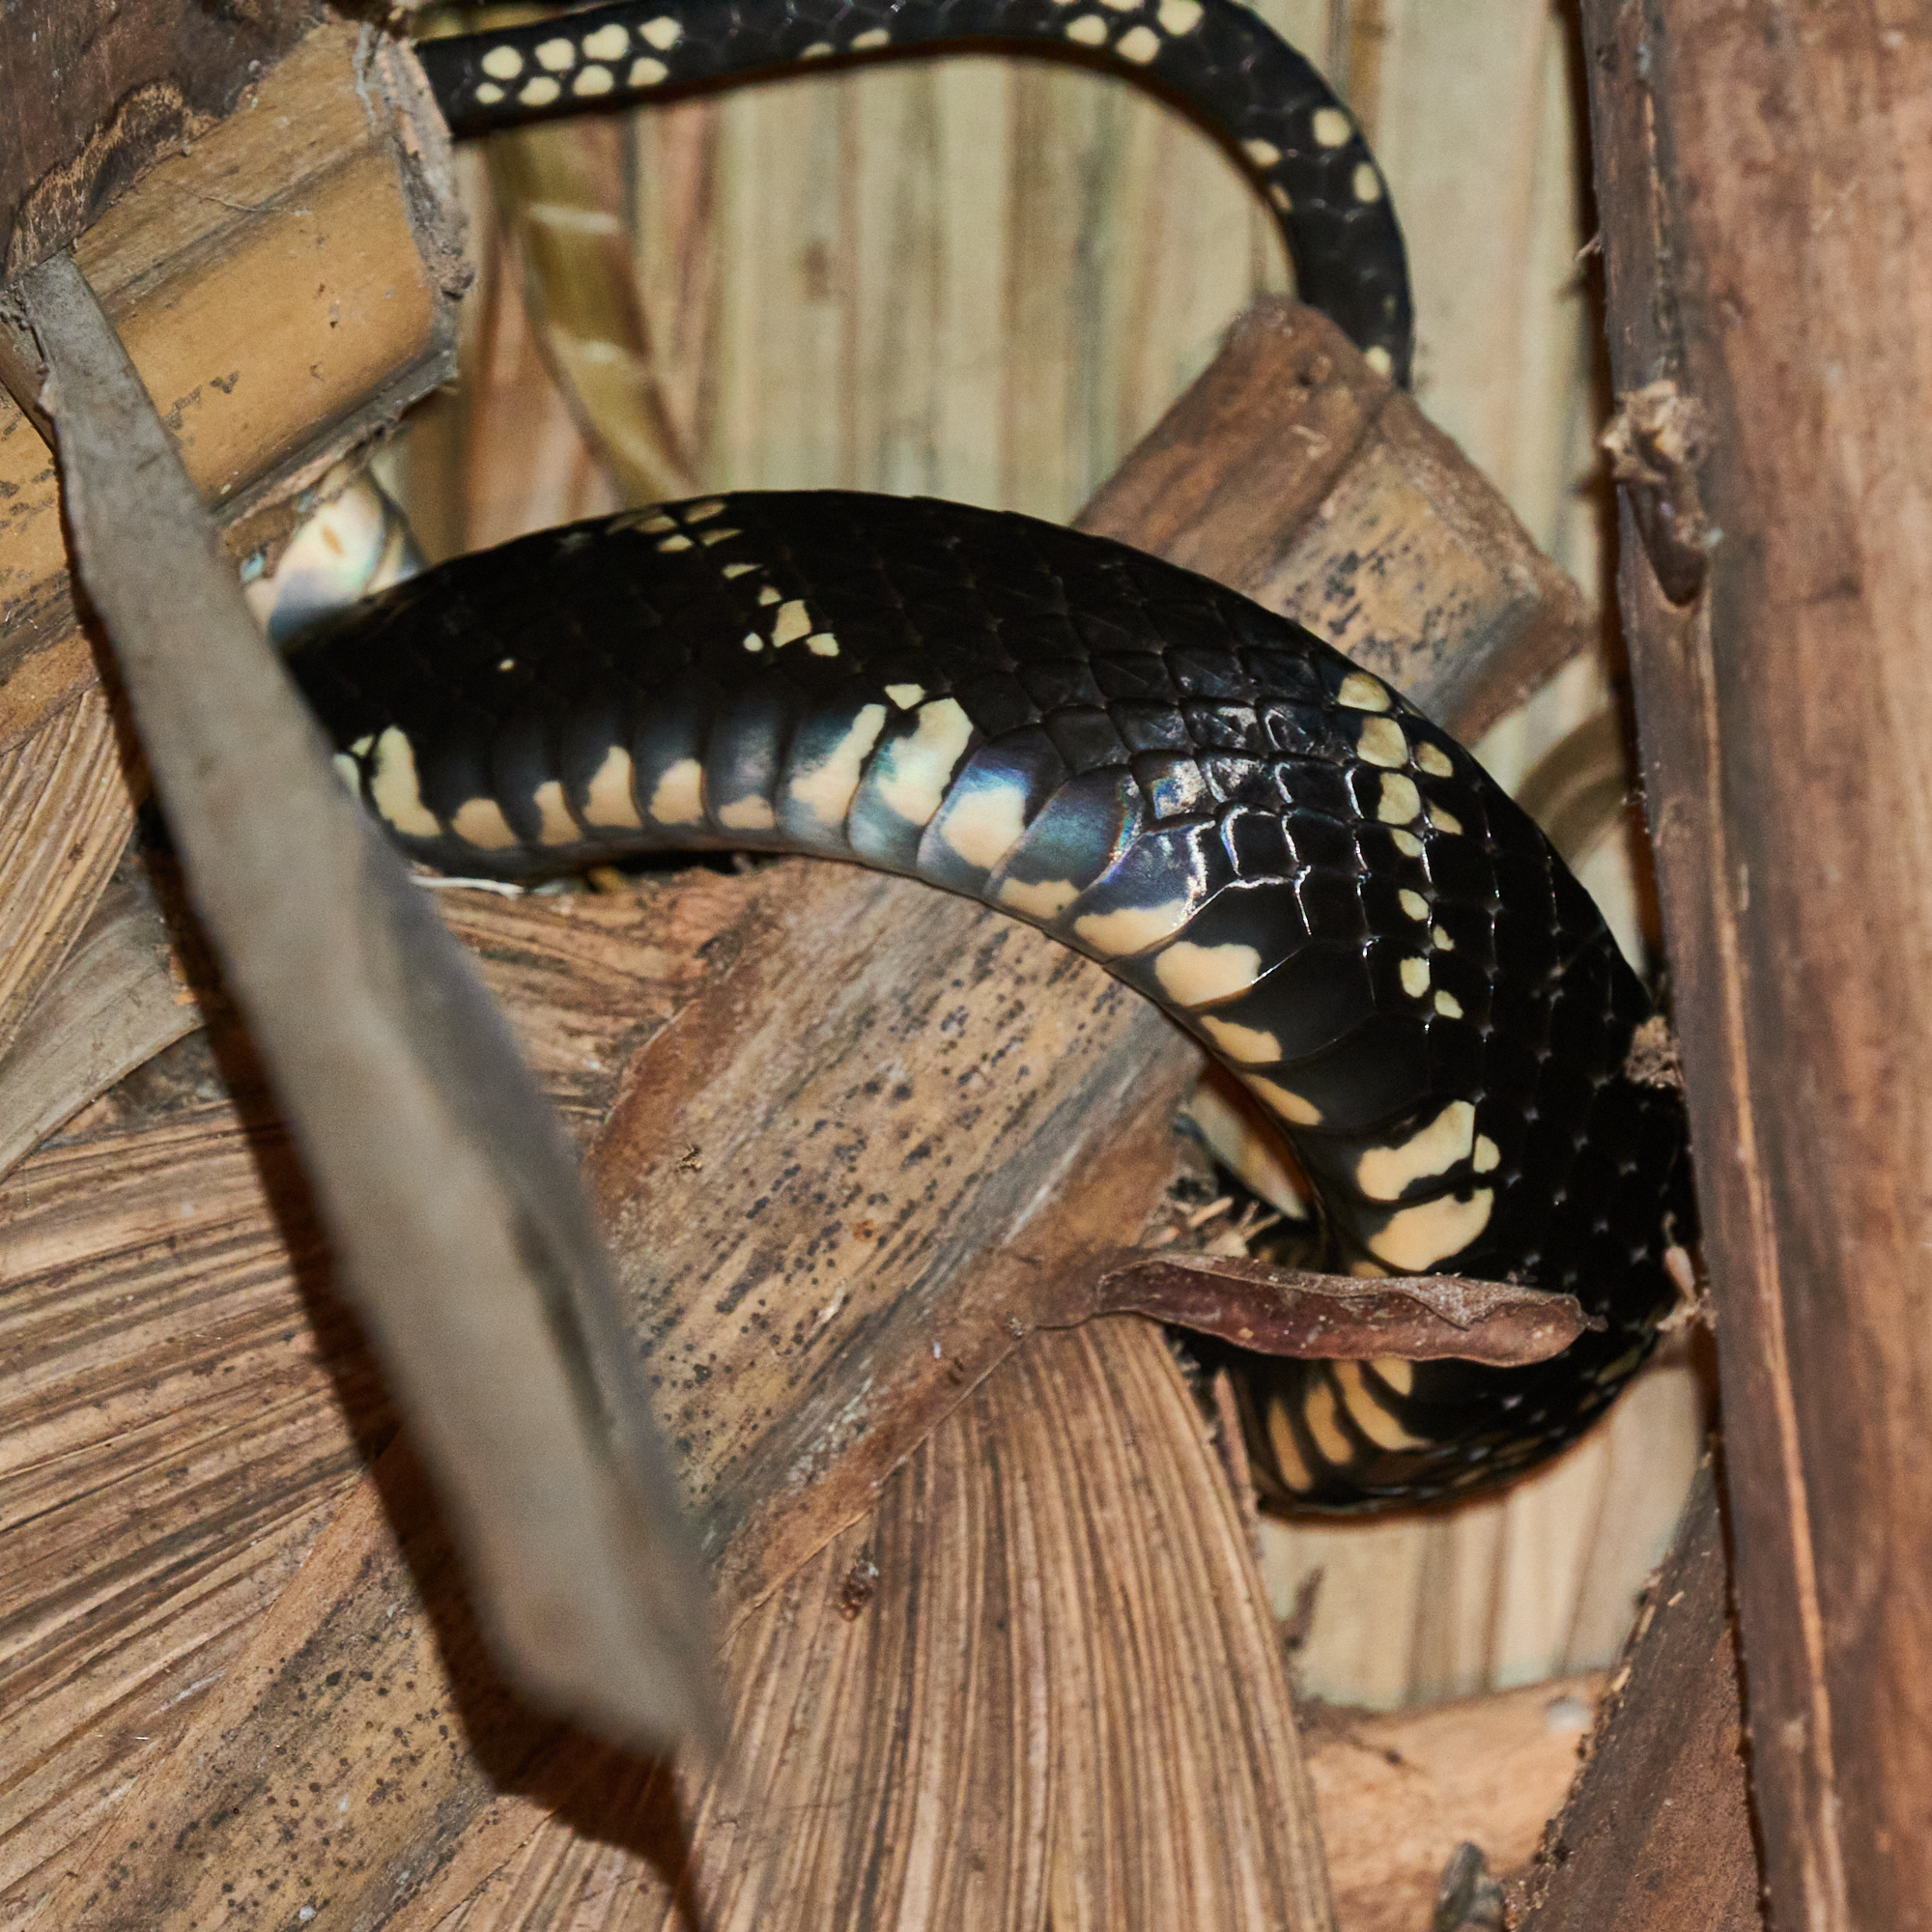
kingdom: Animalia
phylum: Chordata
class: Squamata
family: Colubridae
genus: Spilotes
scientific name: Spilotes pullatus
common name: Chicken snake
